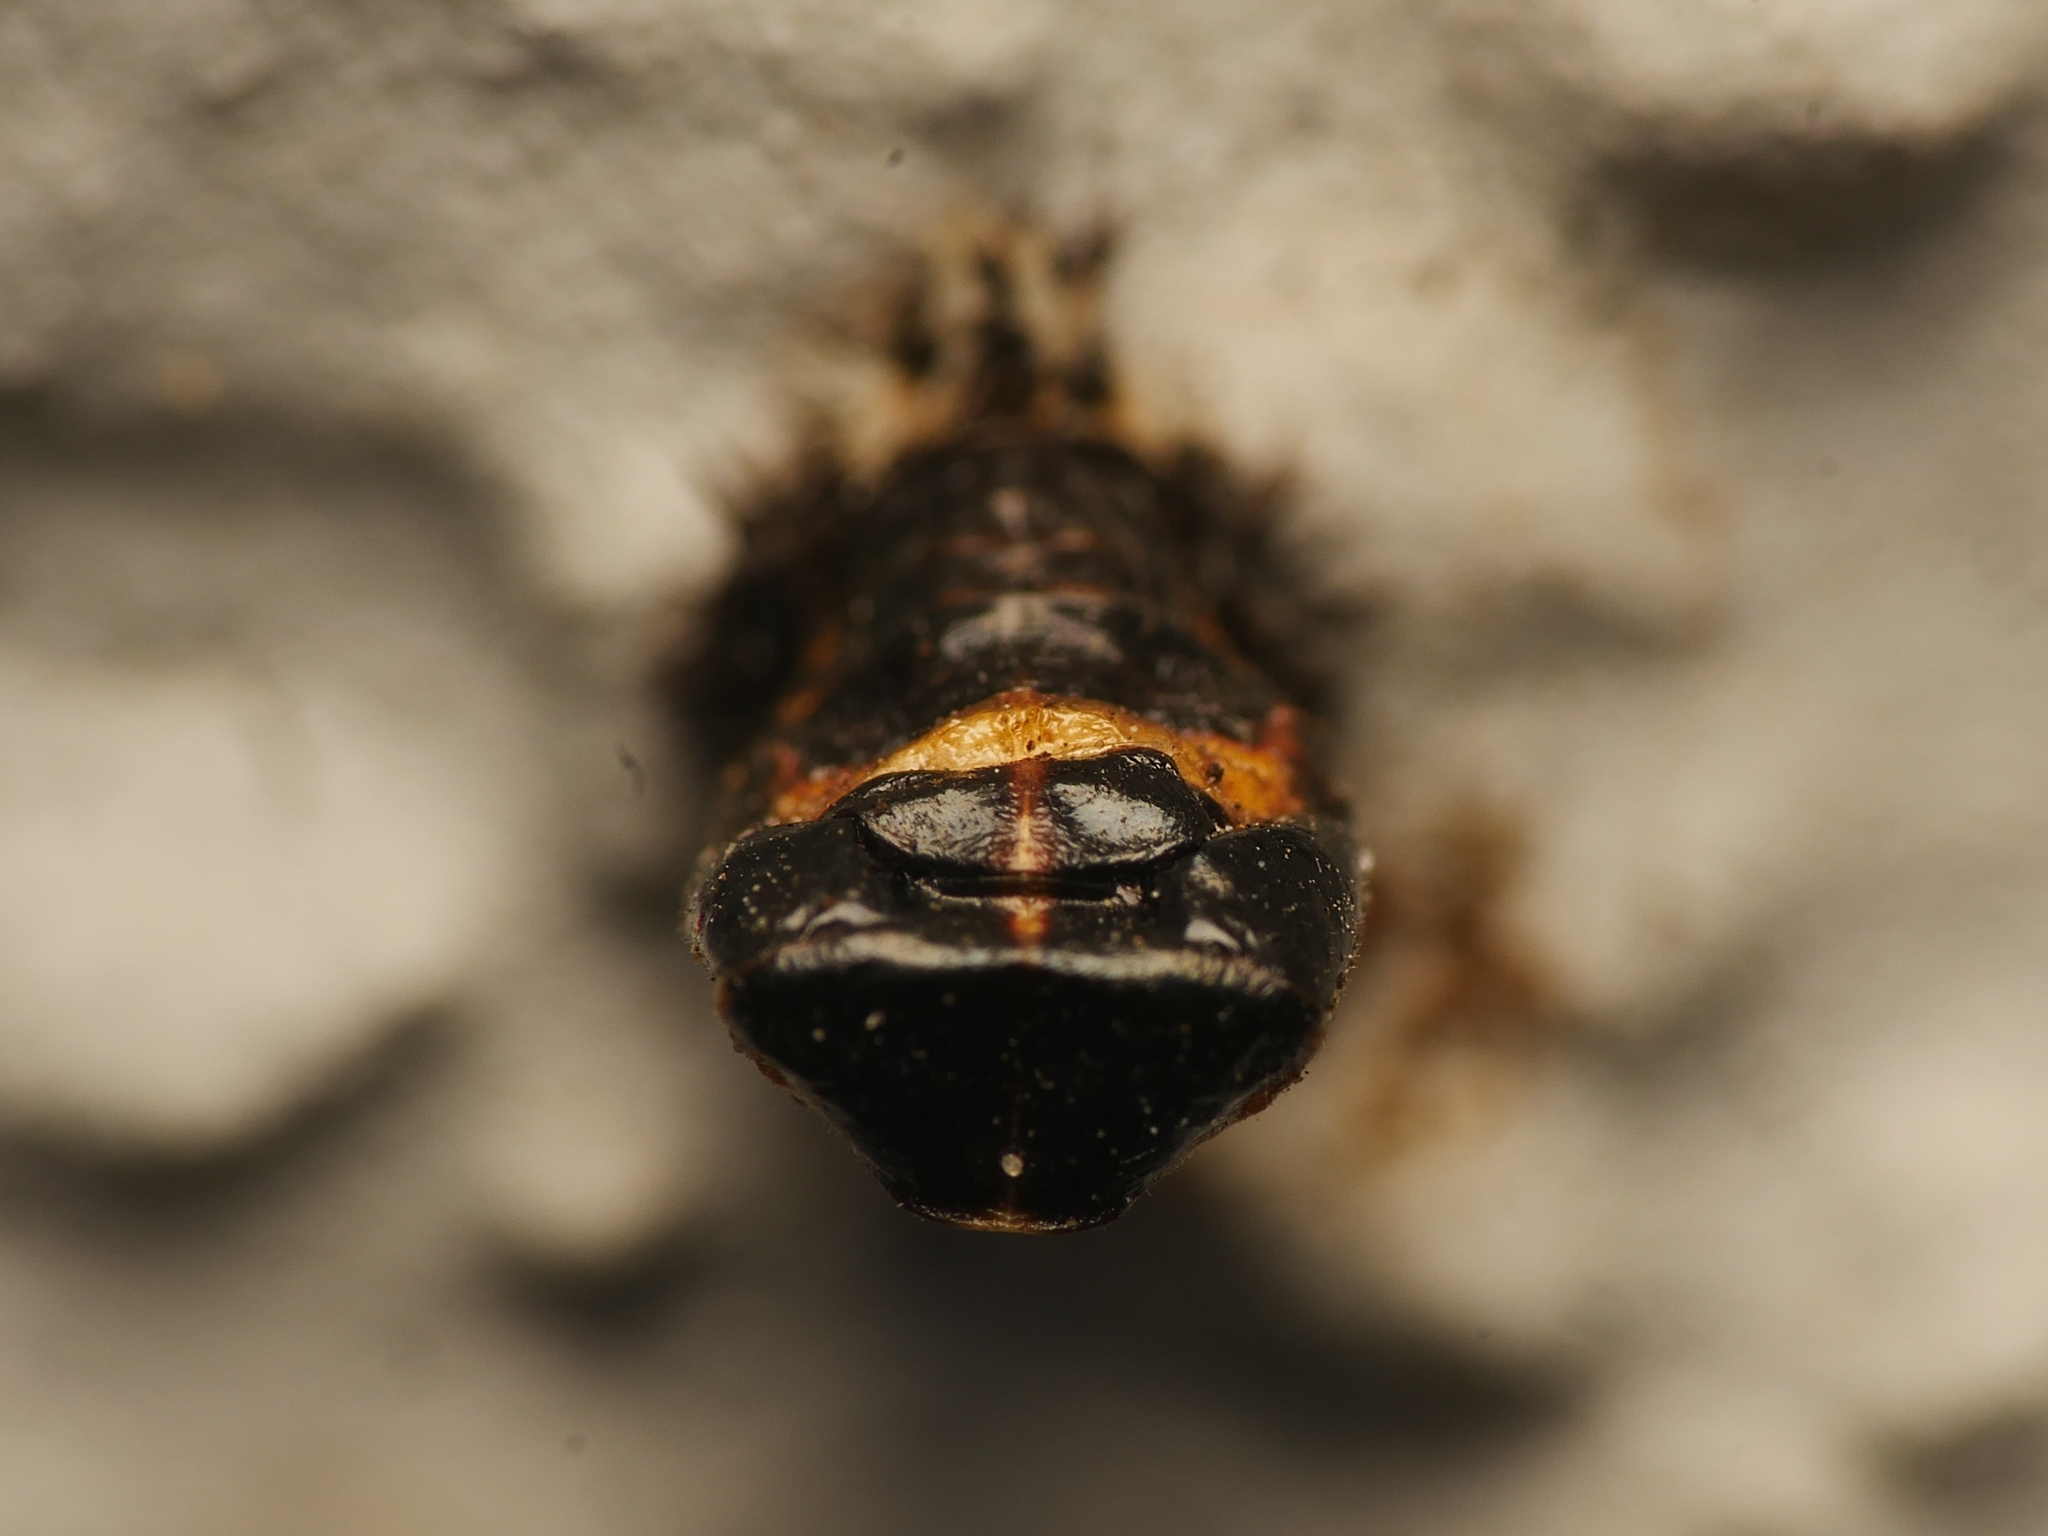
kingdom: Animalia
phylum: Arthropoda
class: Insecta
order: Coleoptera
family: Coccinellidae
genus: Harmonia
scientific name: Harmonia axyridis
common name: Harlequin ladybird
